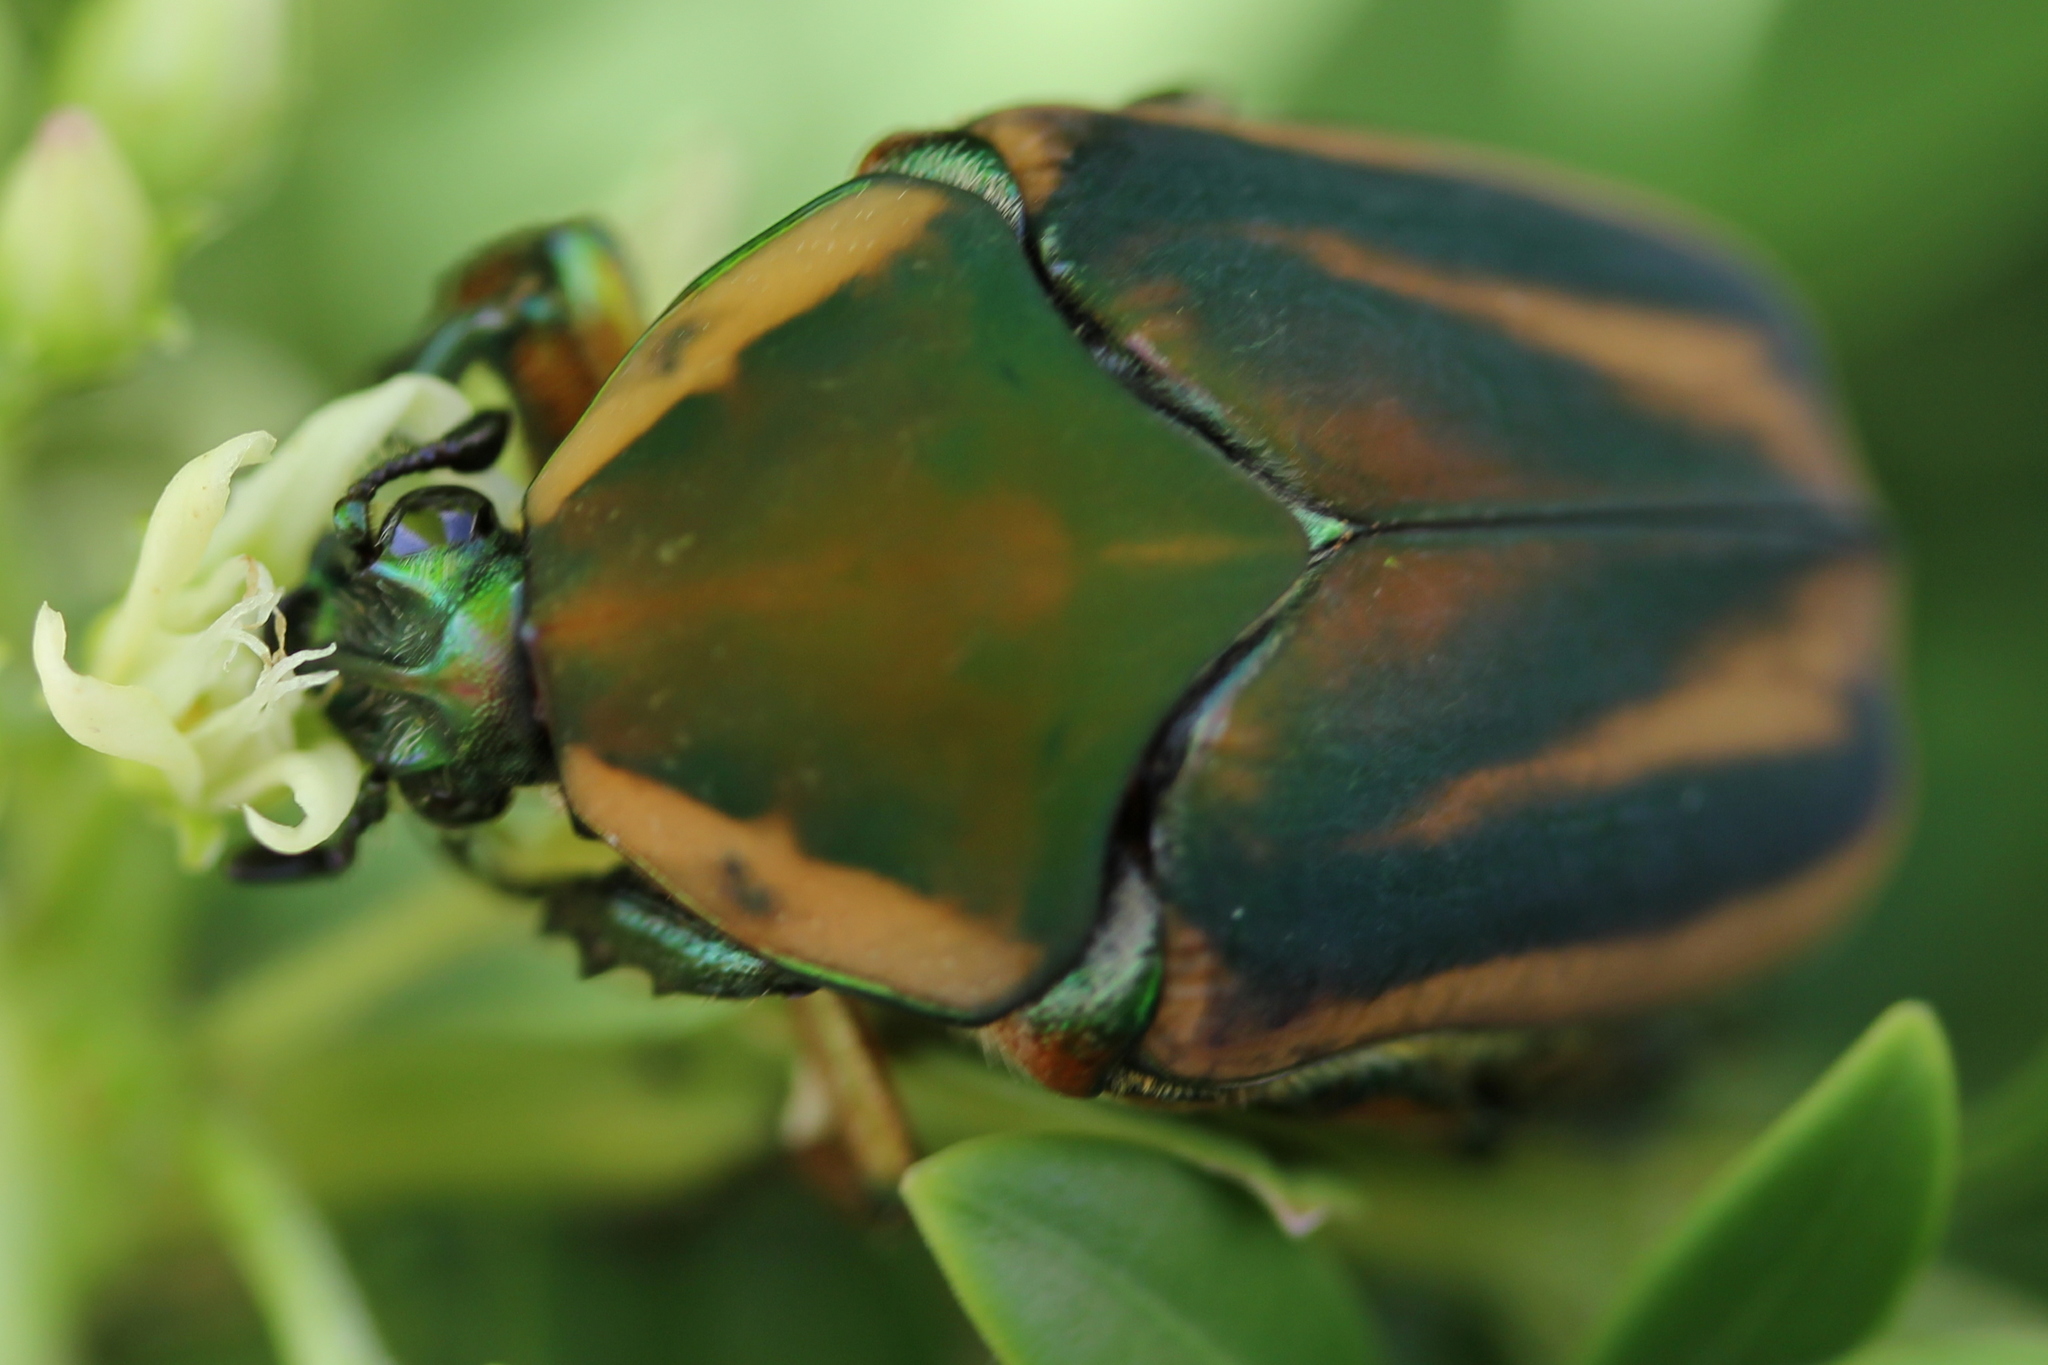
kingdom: Animalia
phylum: Arthropoda
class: Insecta
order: Coleoptera
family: Scarabaeidae
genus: Cotinis
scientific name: Cotinis nitida
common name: Common green june beetle
